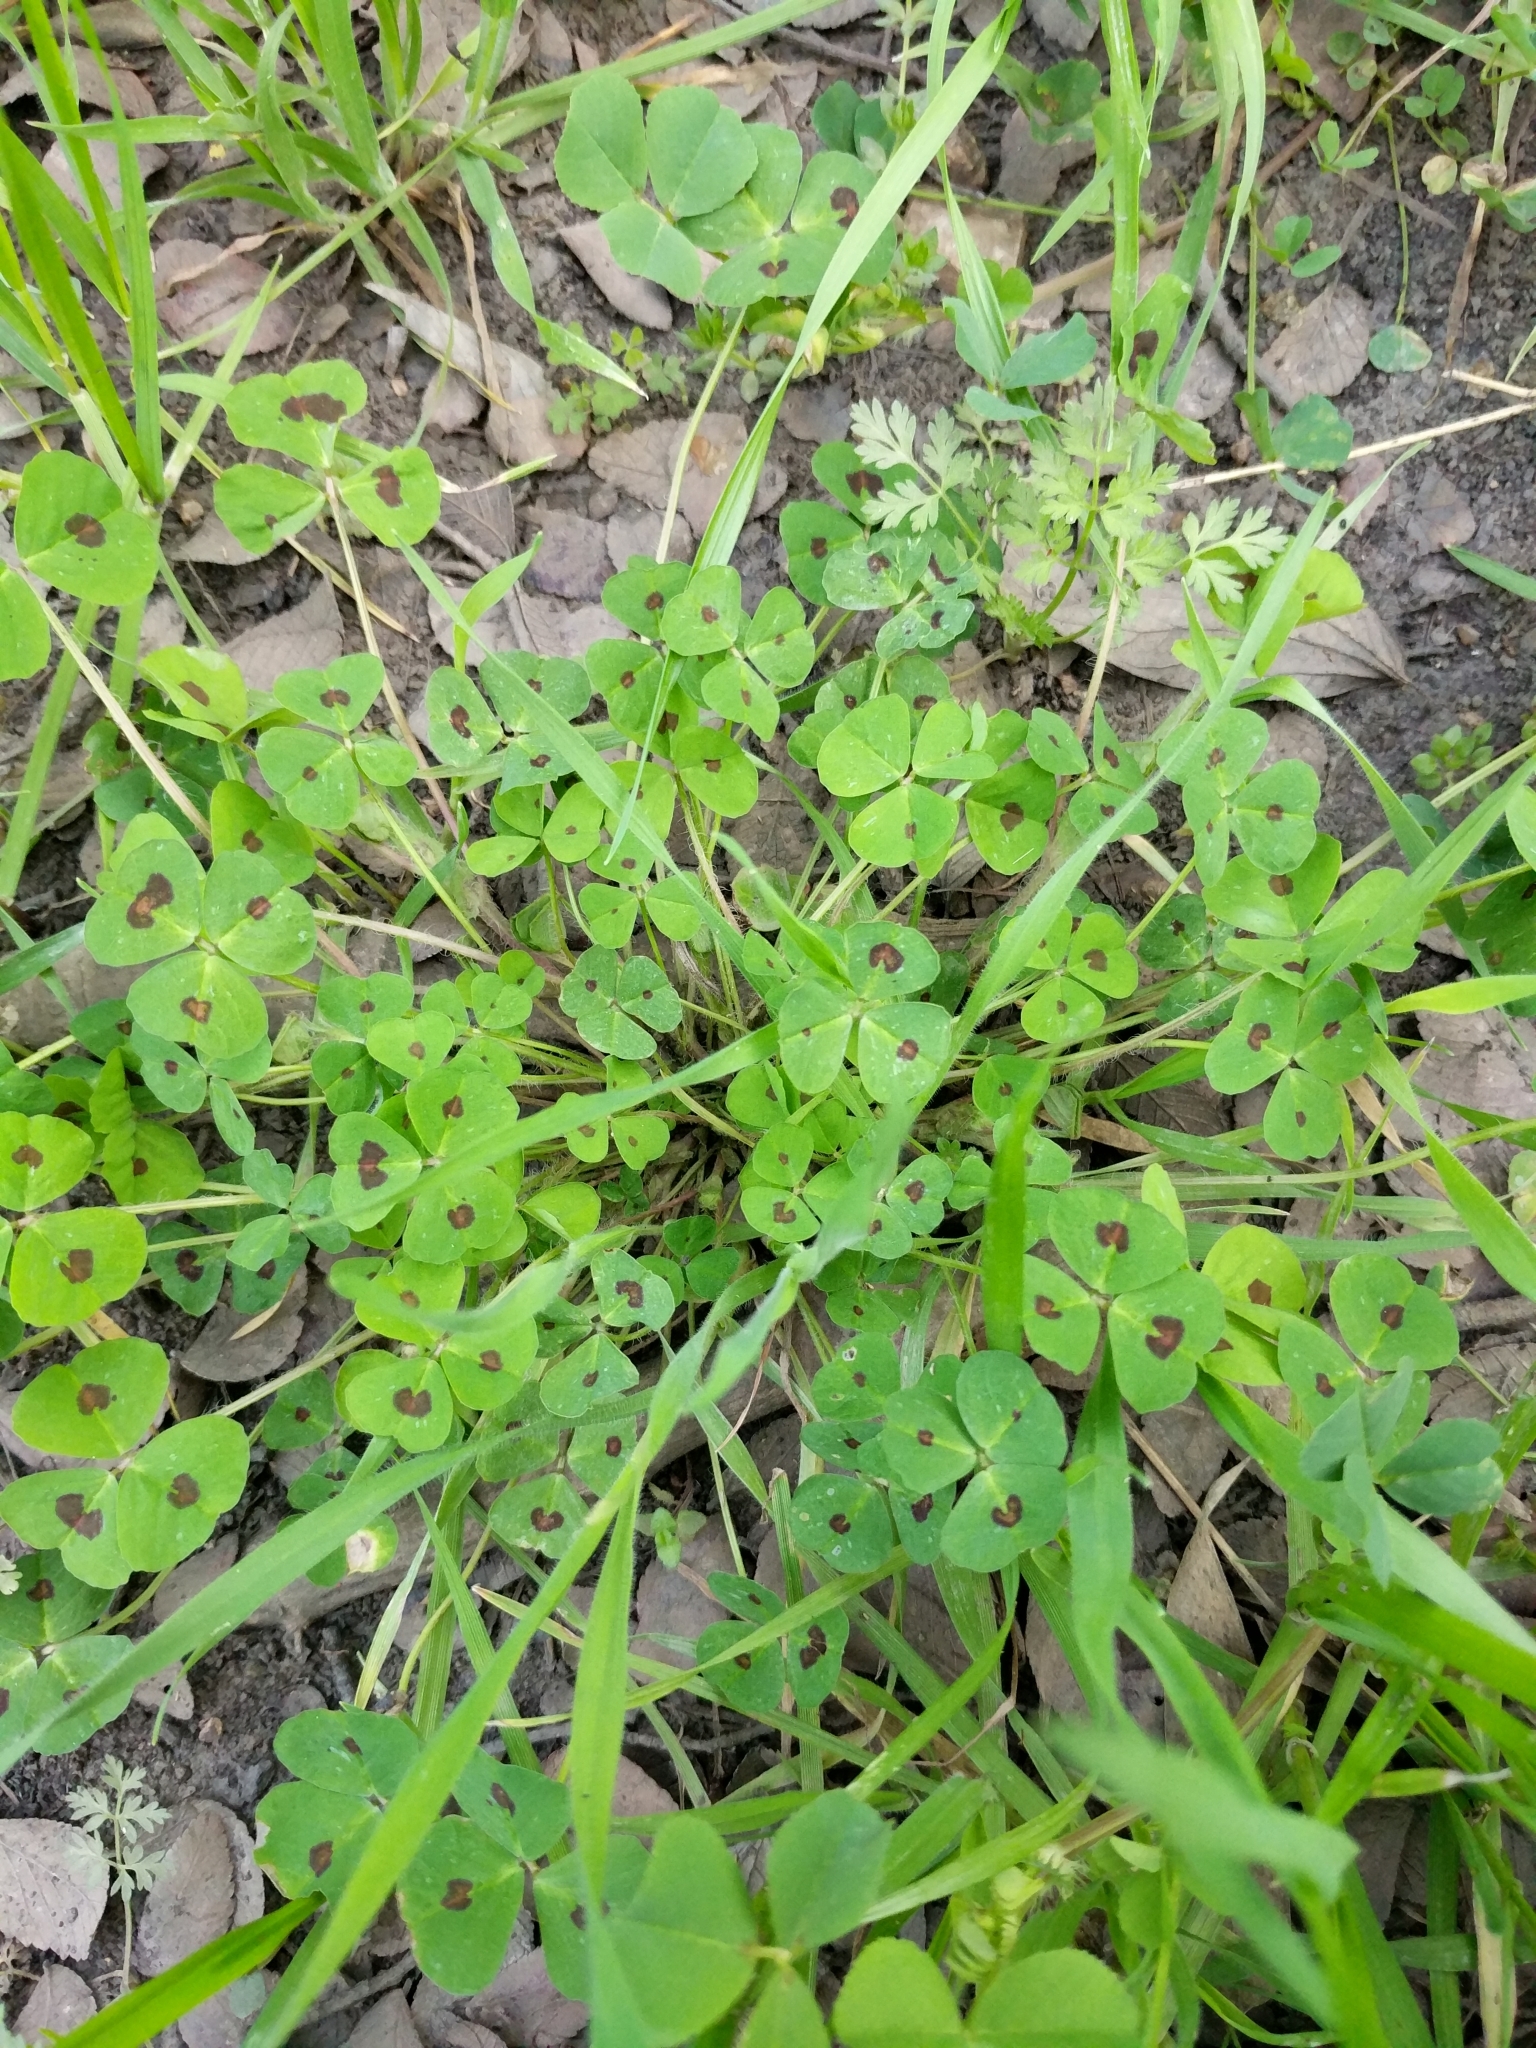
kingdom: Plantae
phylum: Tracheophyta
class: Magnoliopsida
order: Fabales
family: Fabaceae
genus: Medicago
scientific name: Medicago arabica
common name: Spotted medick
